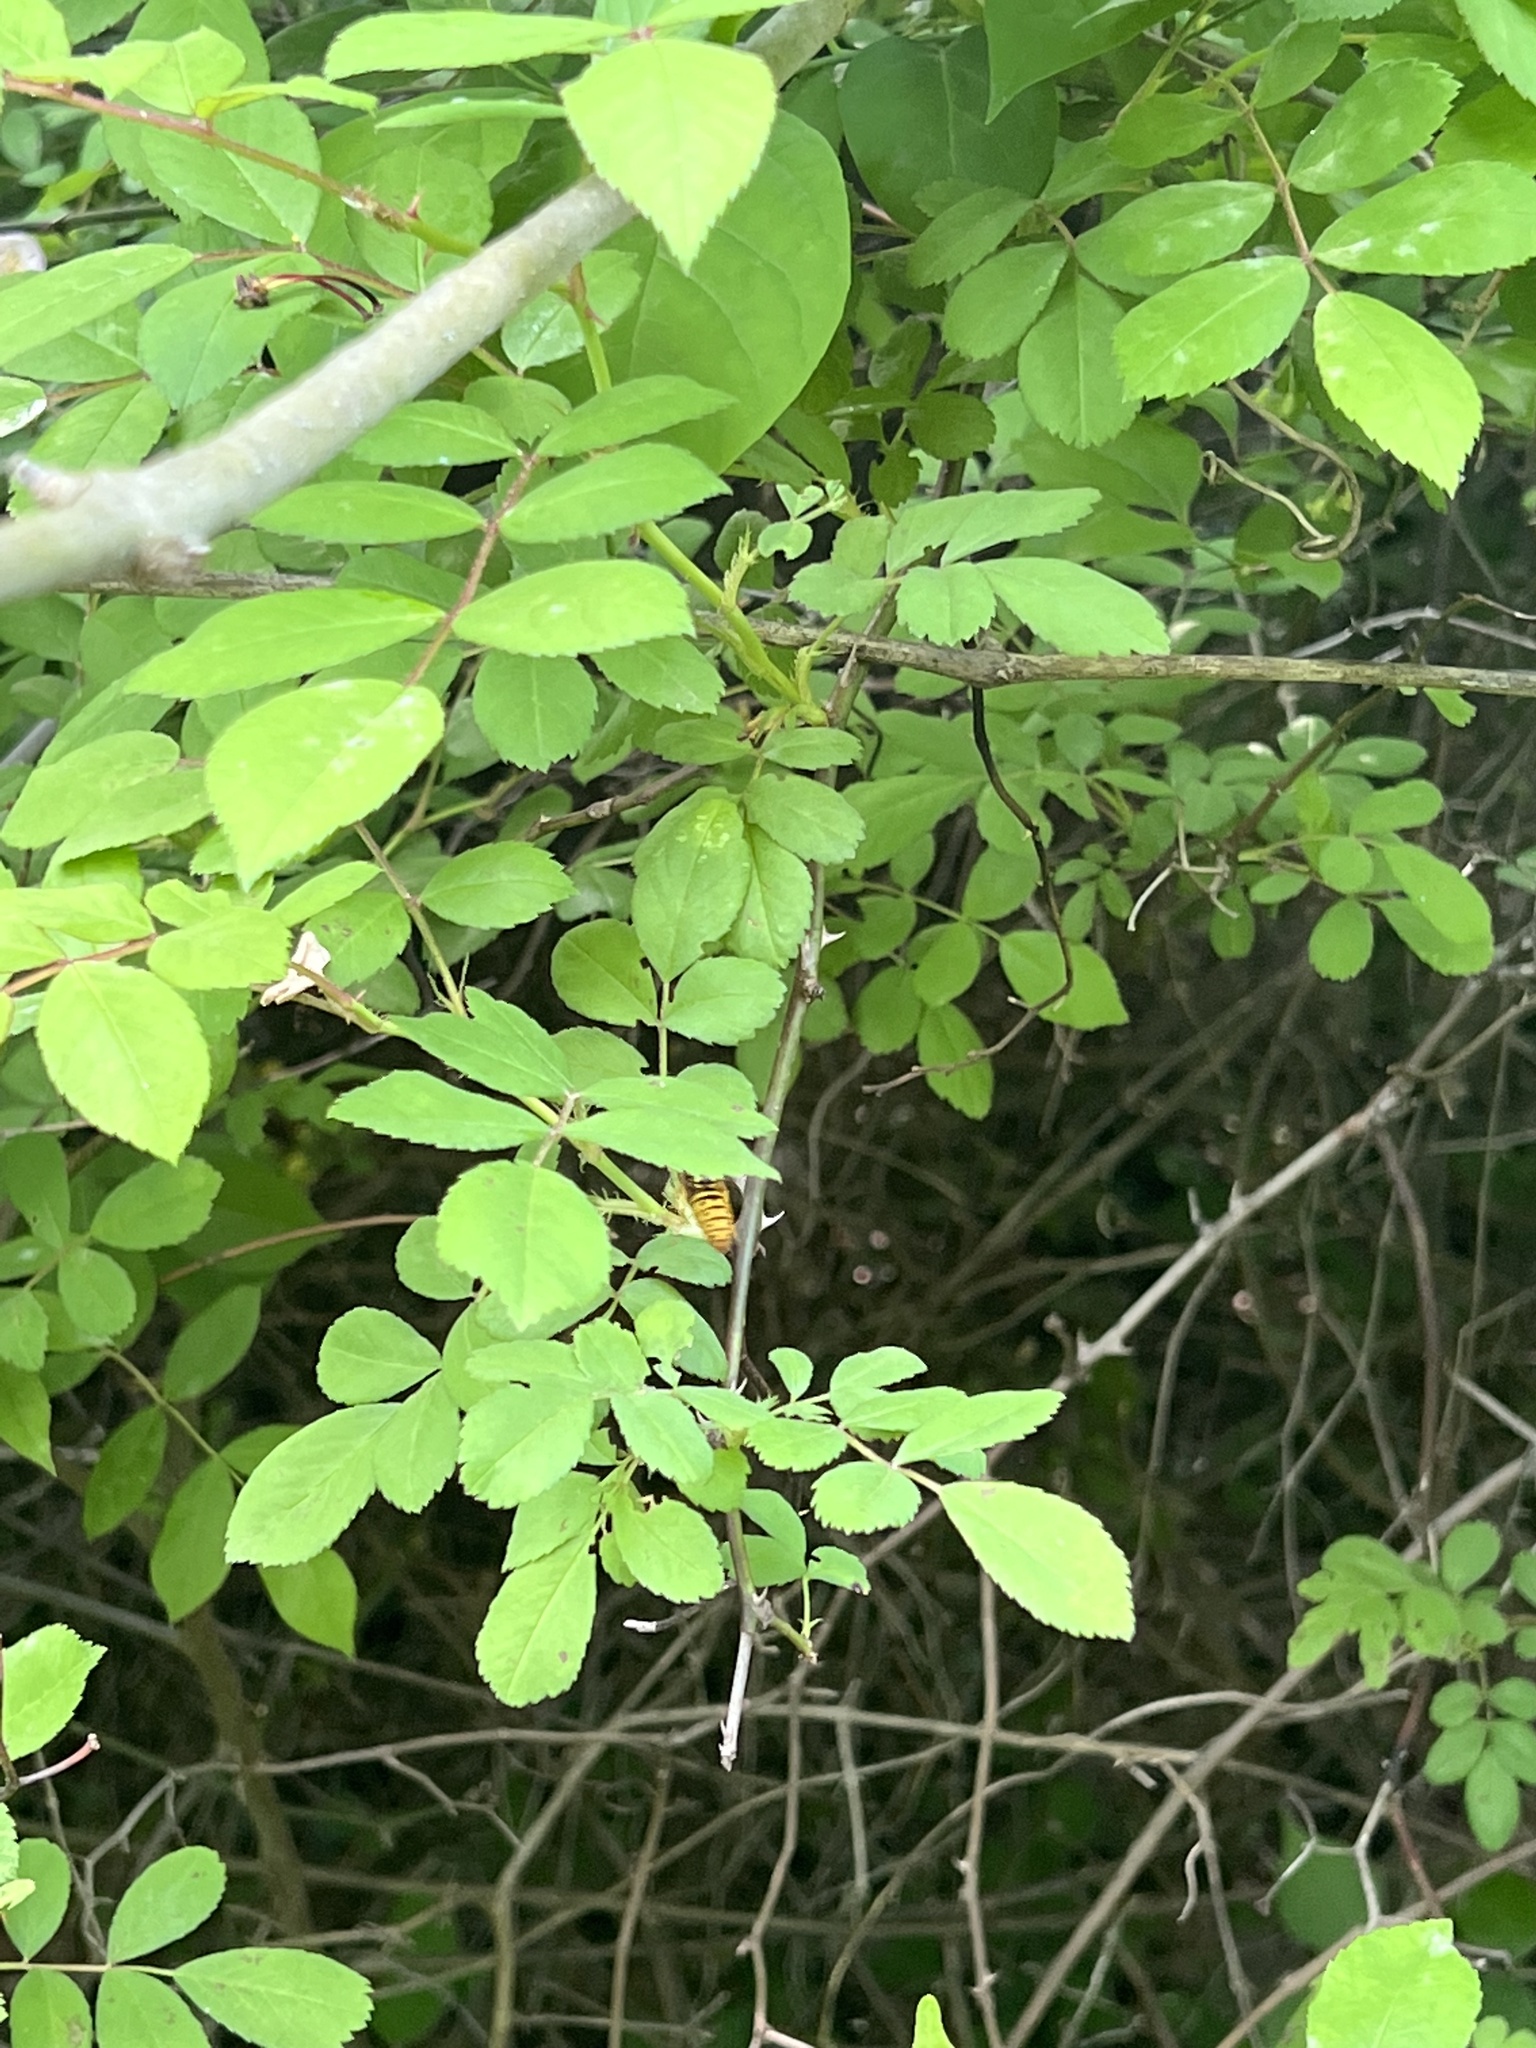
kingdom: Animalia
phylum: Arthropoda
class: Insecta
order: Hymenoptera
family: Vespidae
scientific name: Vespidae
